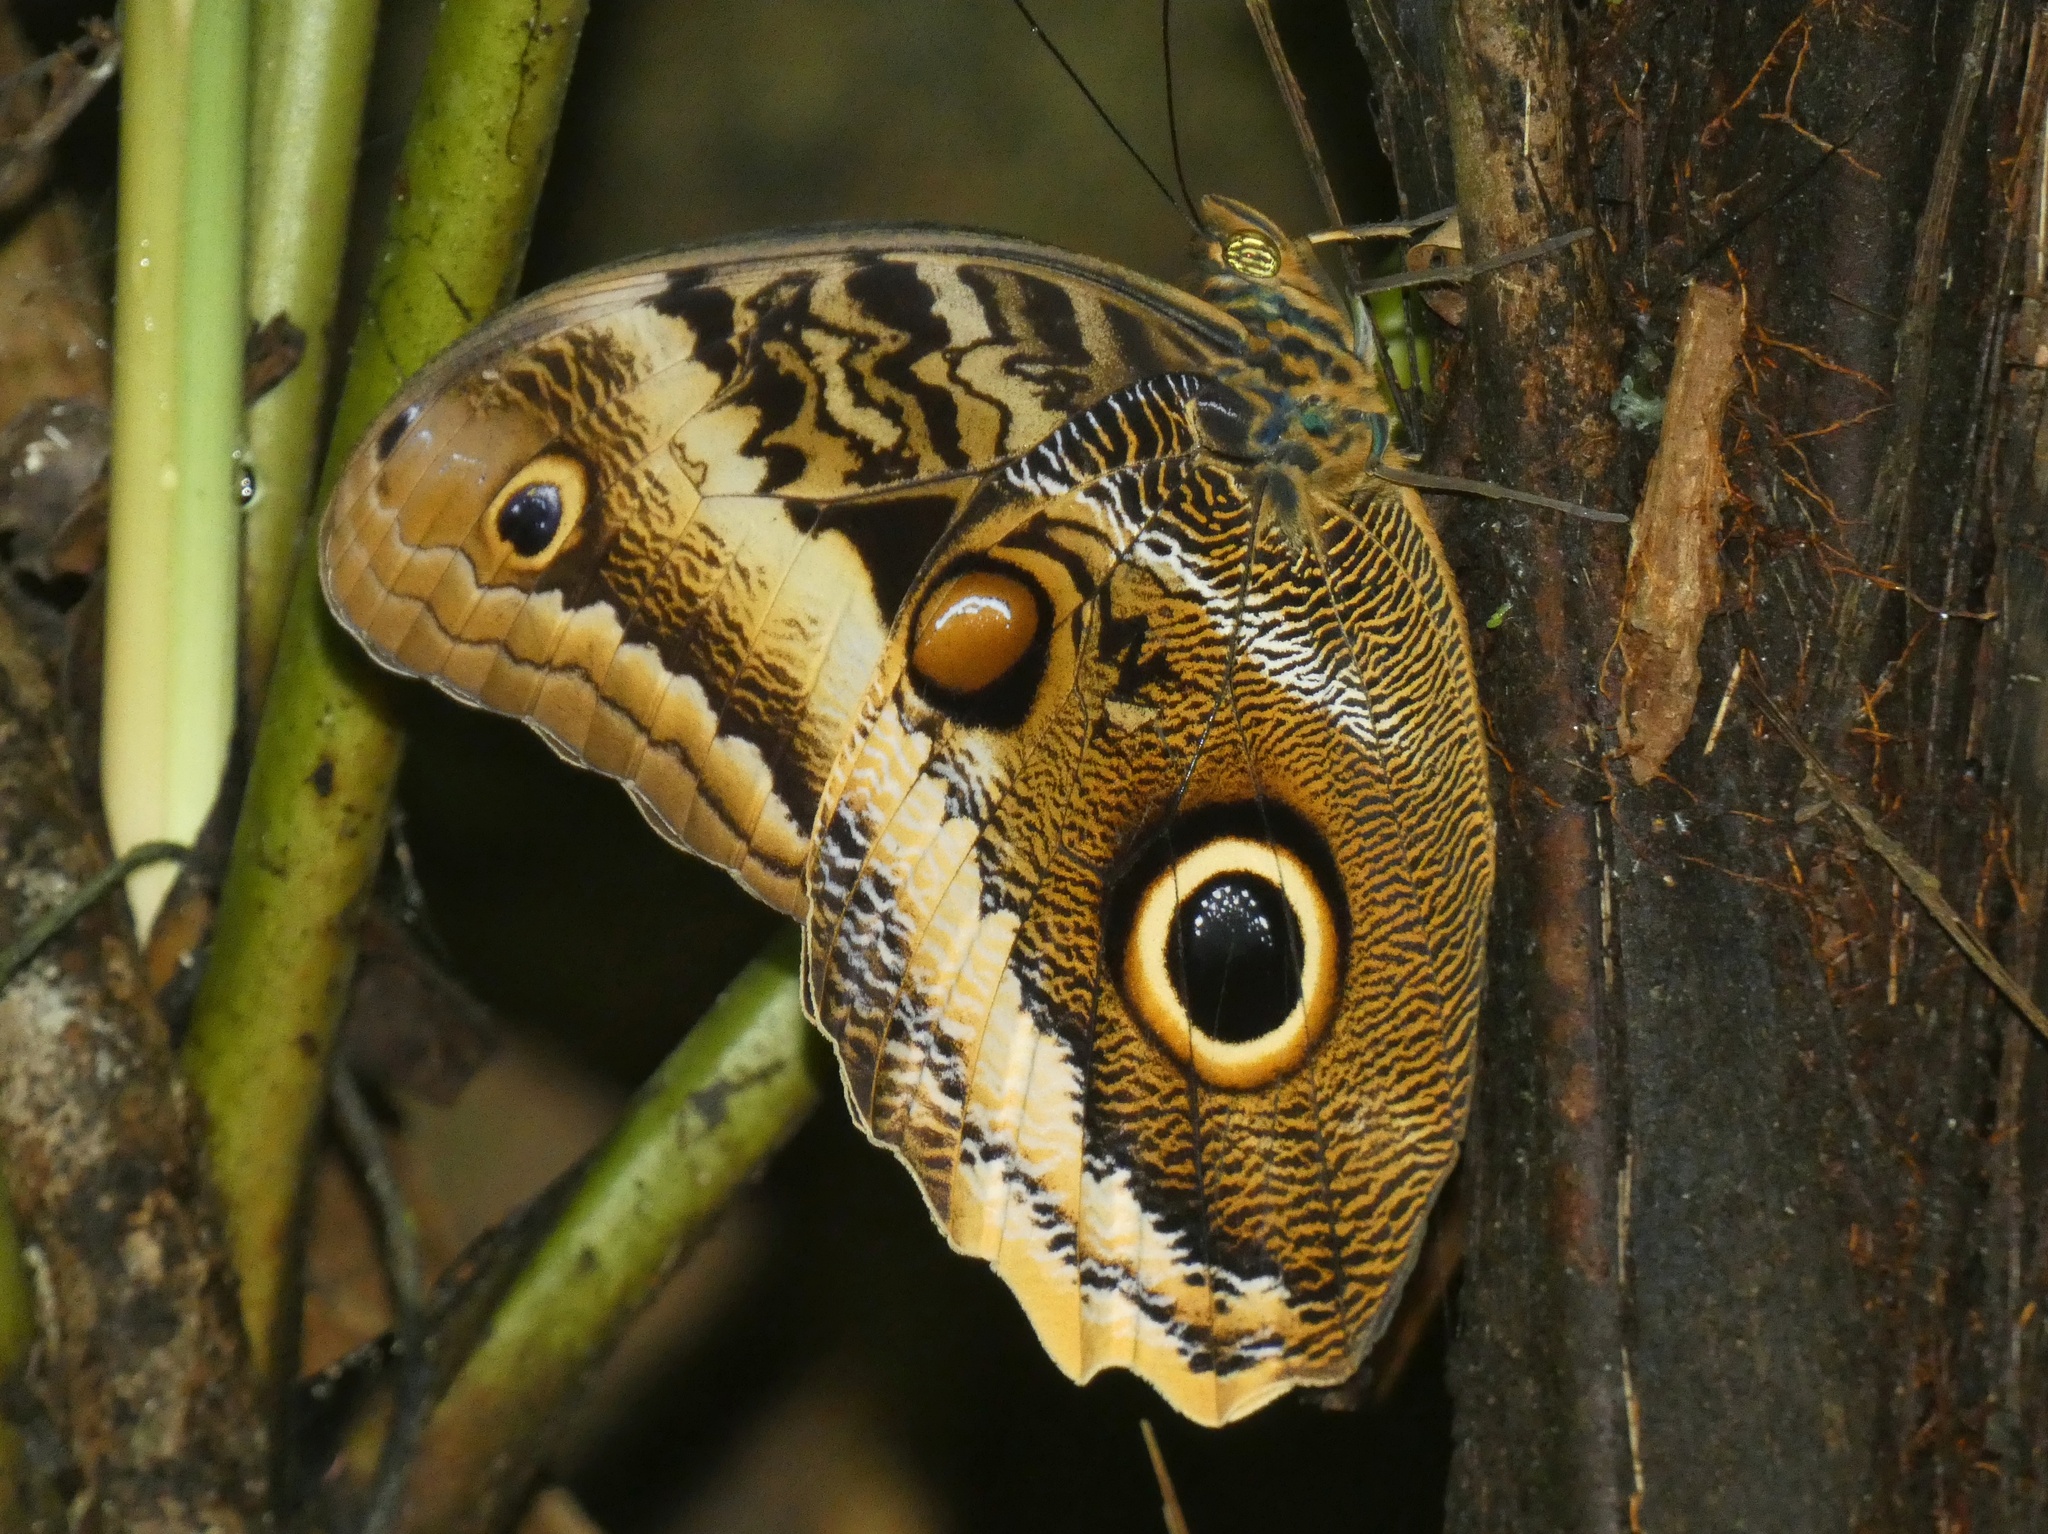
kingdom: Animalia
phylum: Arthropoda
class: Insecta
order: Lepidoptera
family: Nymphalidae
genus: Caligo
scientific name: Caligo atreus
